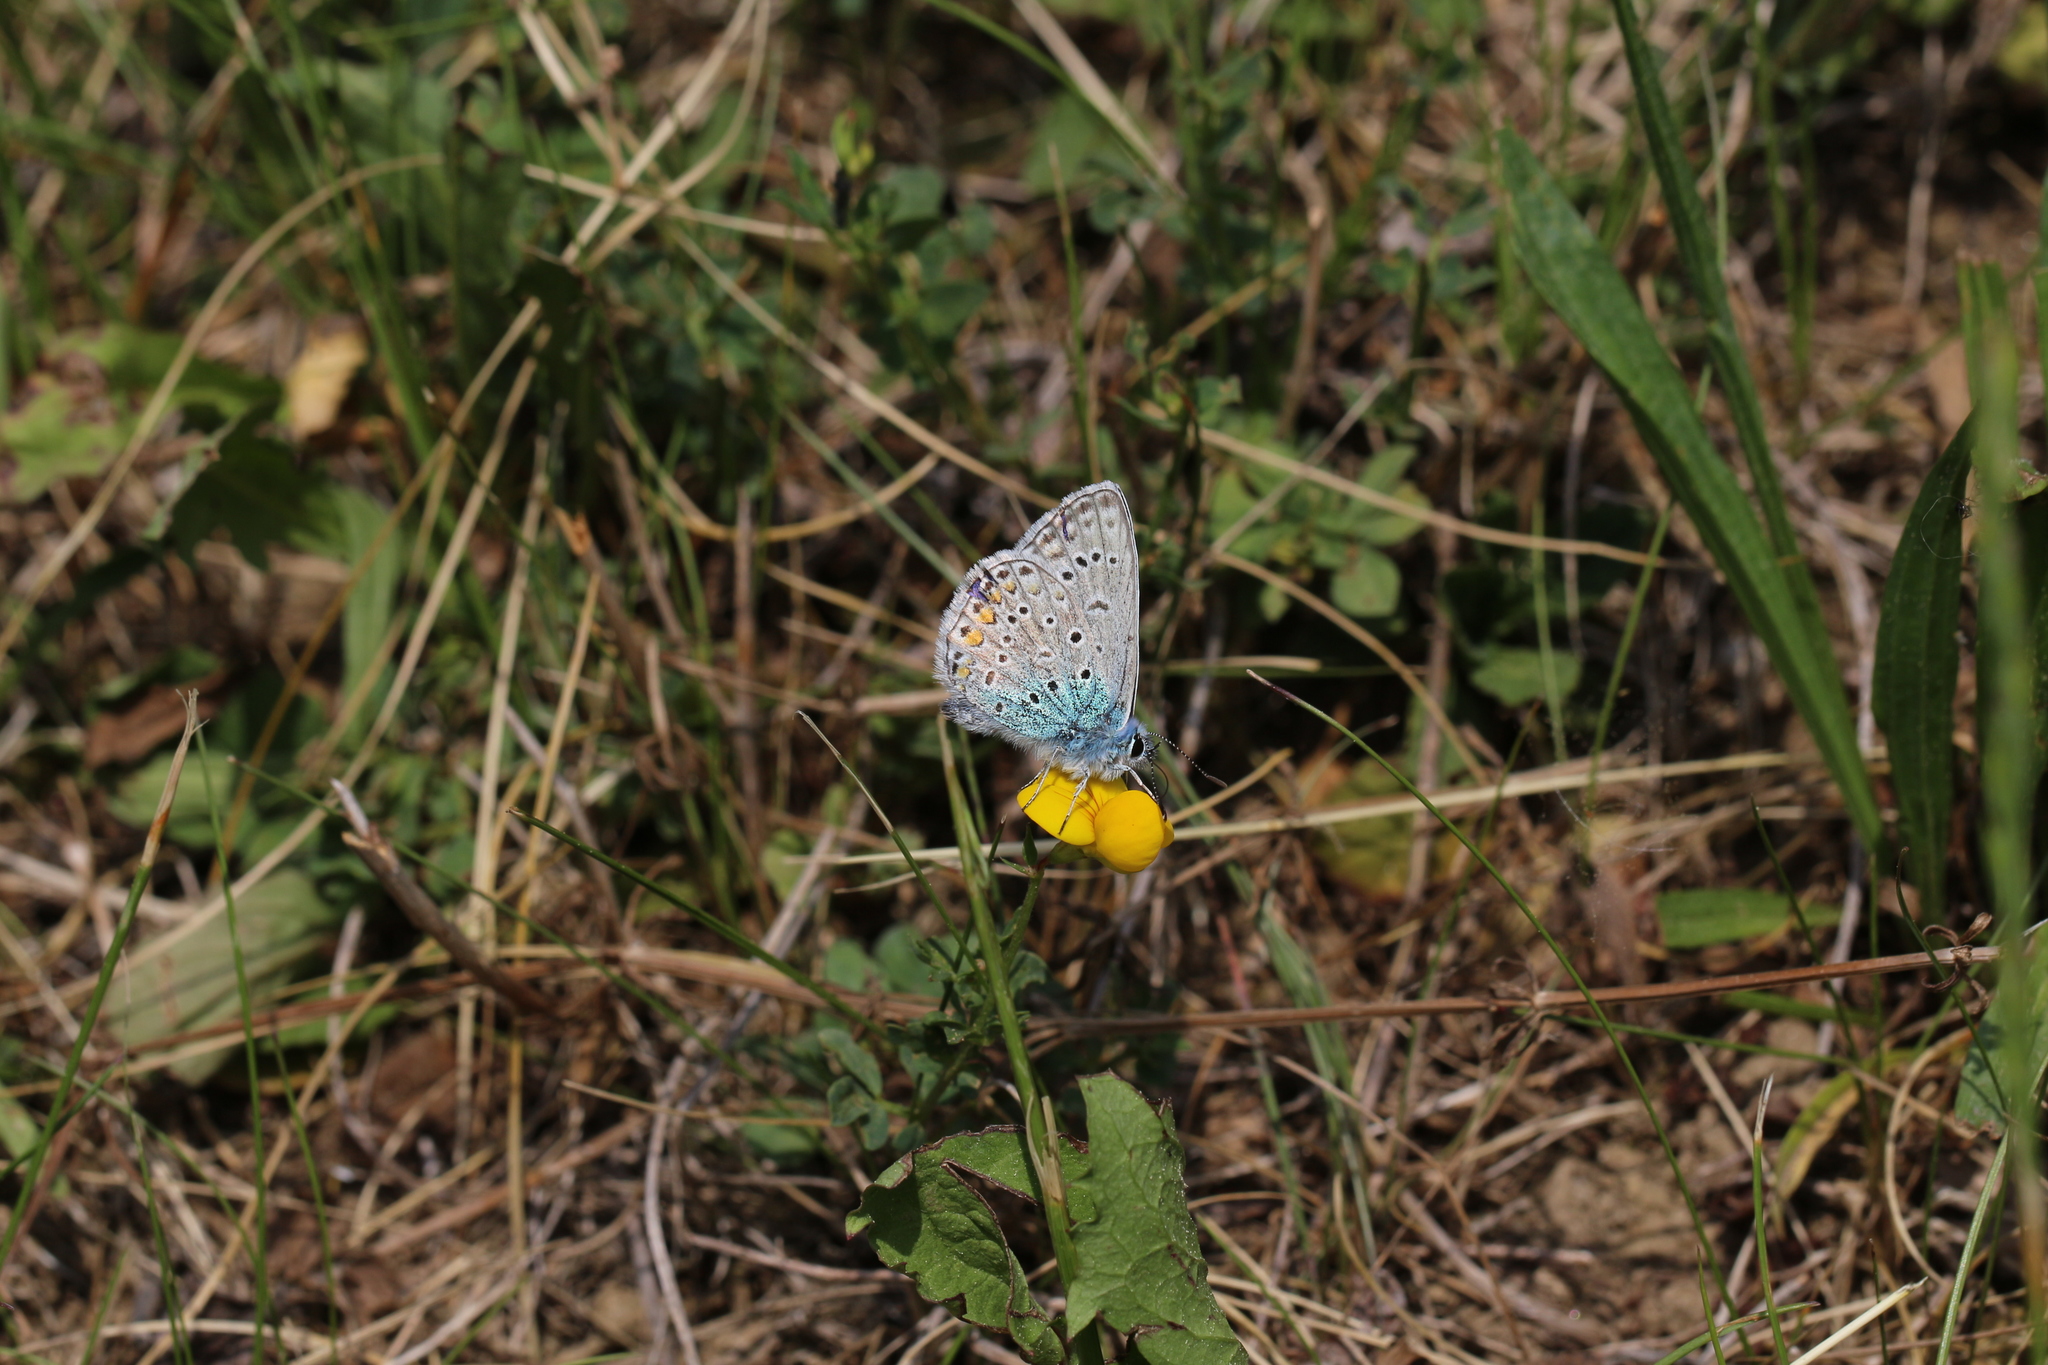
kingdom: Animalia
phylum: Arthropoda
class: Insecta
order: Lepidoptera
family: Lycaenidae
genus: Polyommatus
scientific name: Polyommatus icarus
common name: Common blue
